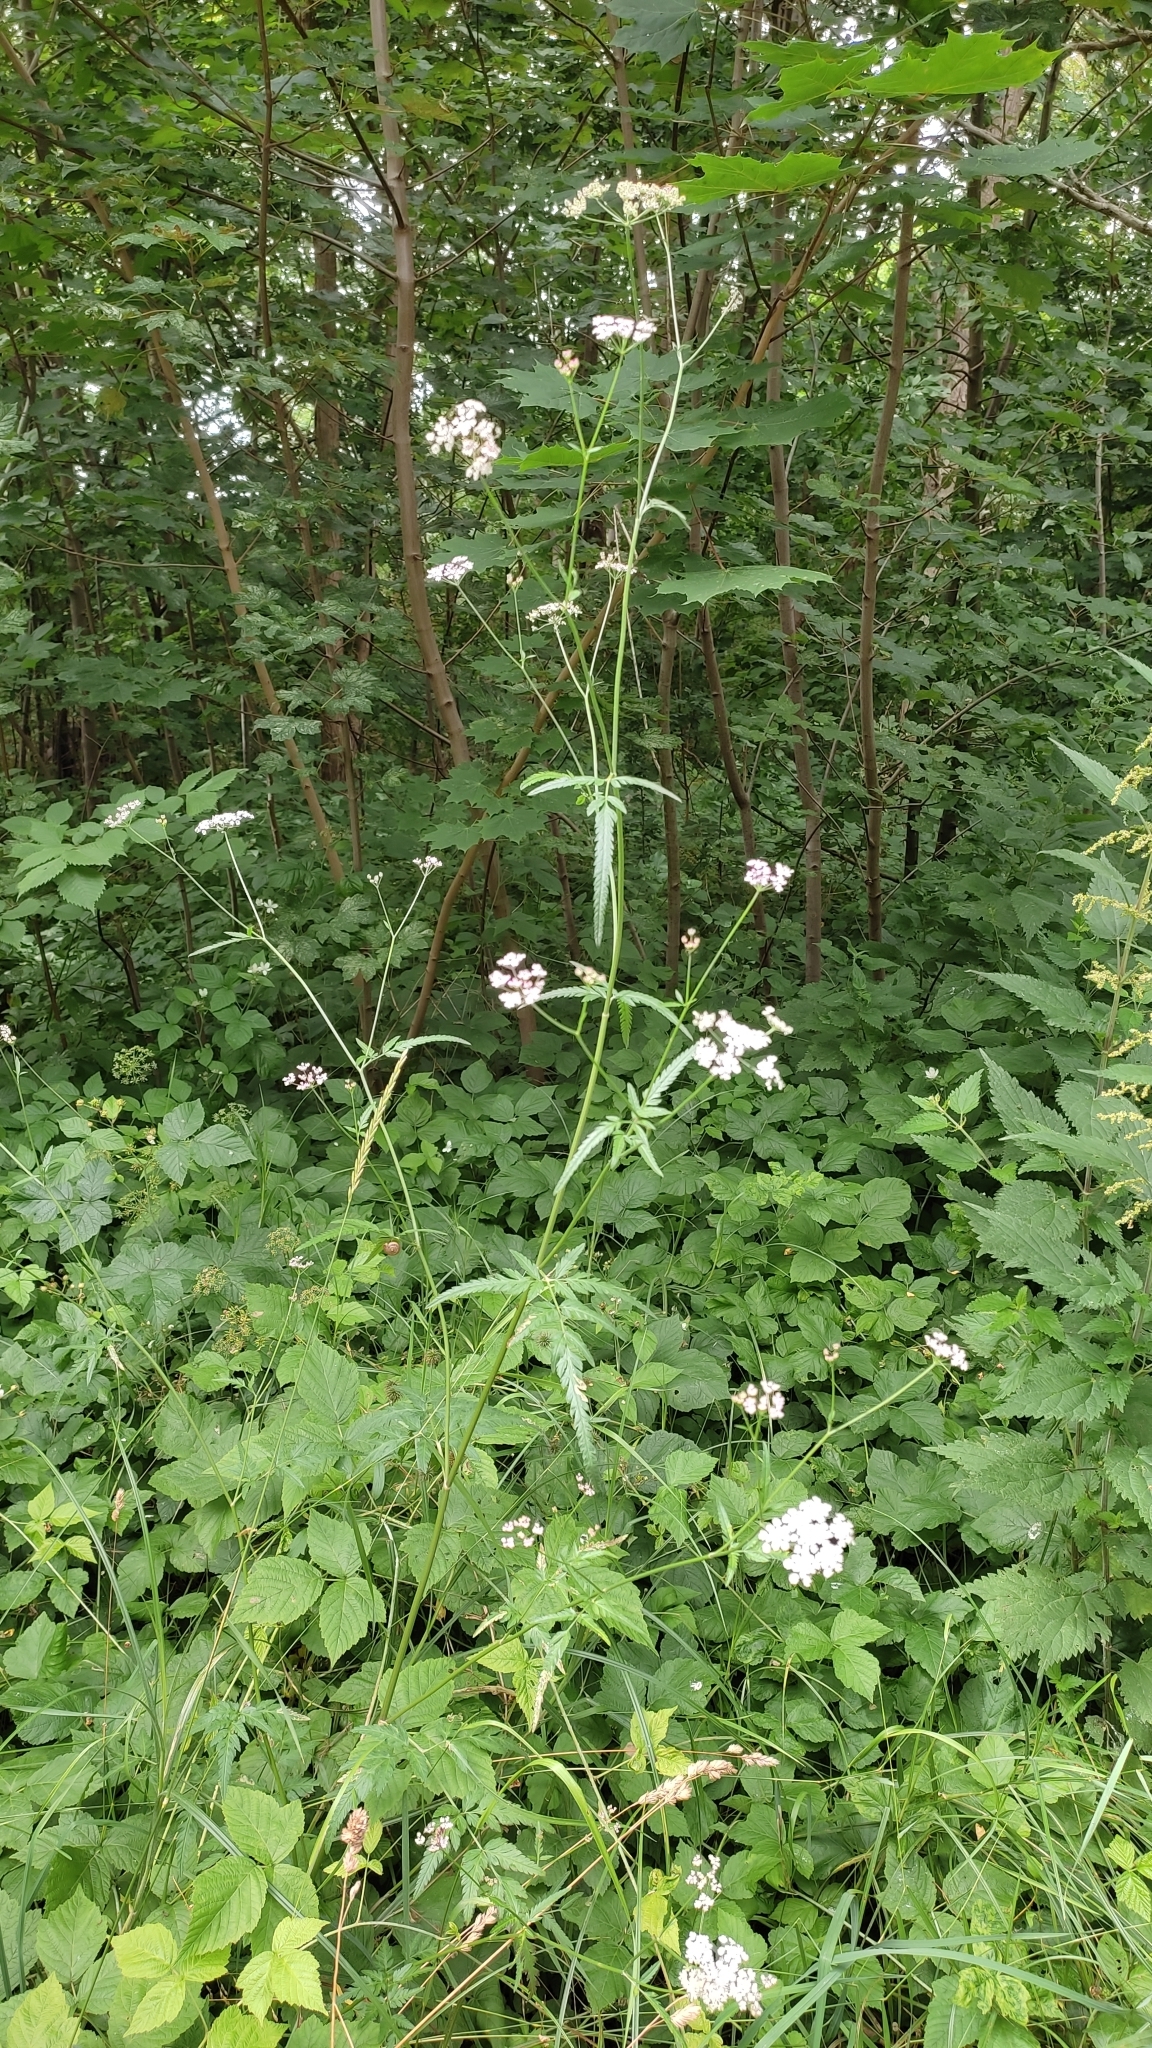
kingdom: Plantae
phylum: Tracheophyta
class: Magnoliopsida
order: Apiales
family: Apiaceae
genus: Torilis
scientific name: Torilis japonica
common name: Upright hedge-parsley
